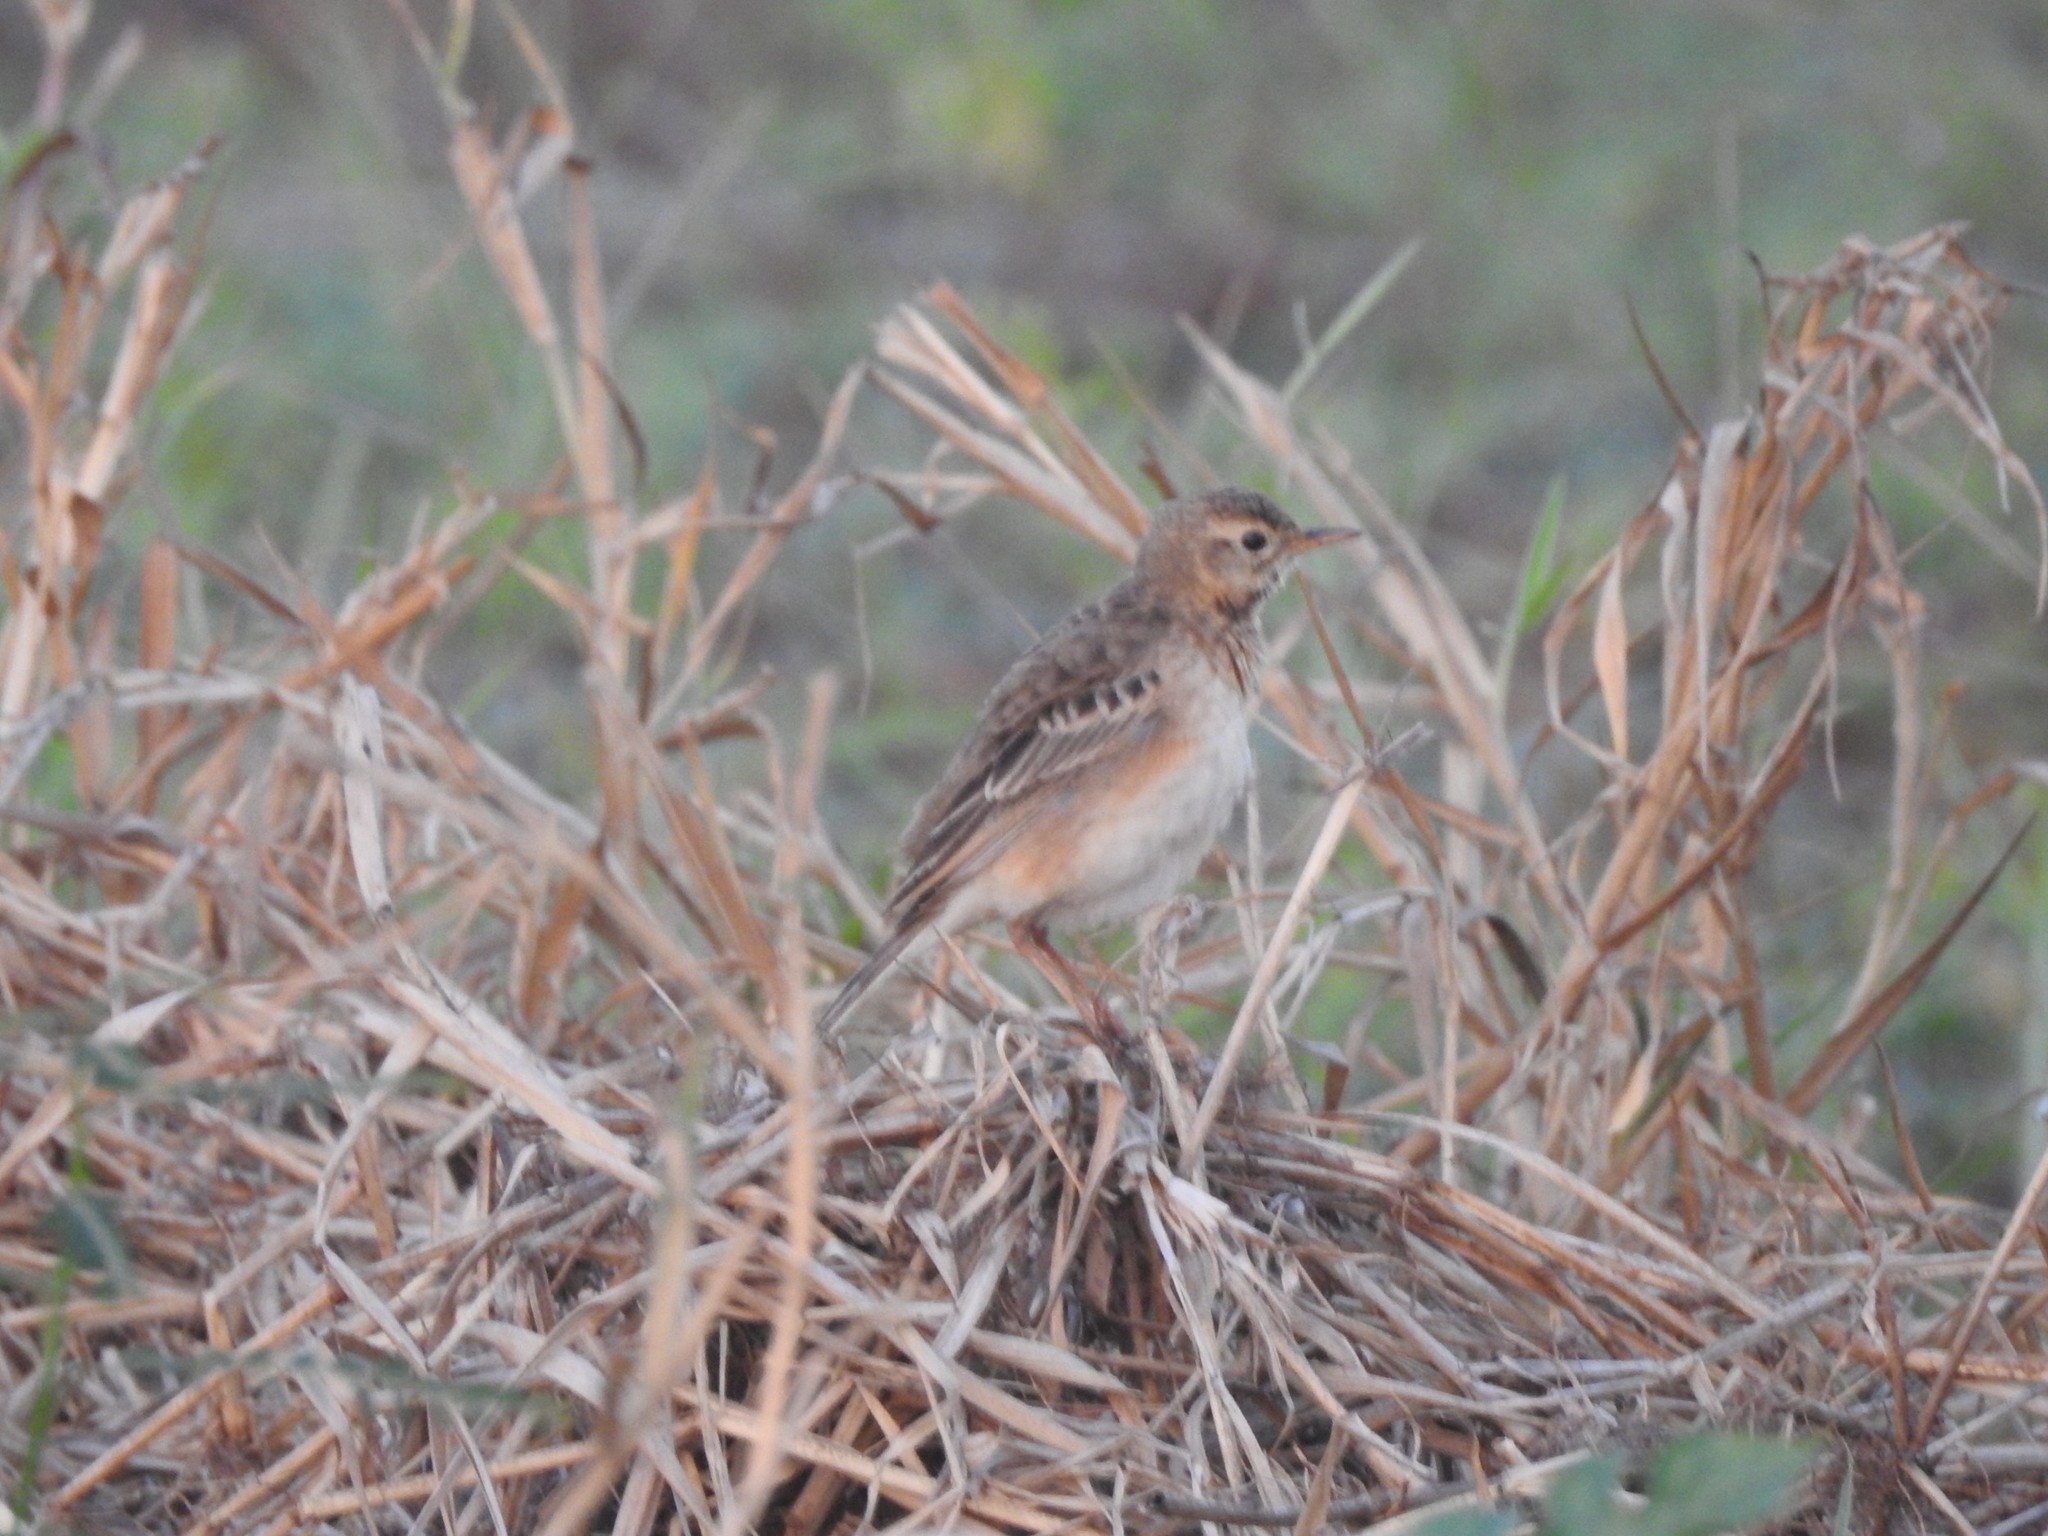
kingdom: Animalia
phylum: Chordata
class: Aves
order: Passeriformes
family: Motacillidae
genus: Anthus
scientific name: Anthus rufulus
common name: Paddyfield pipit
